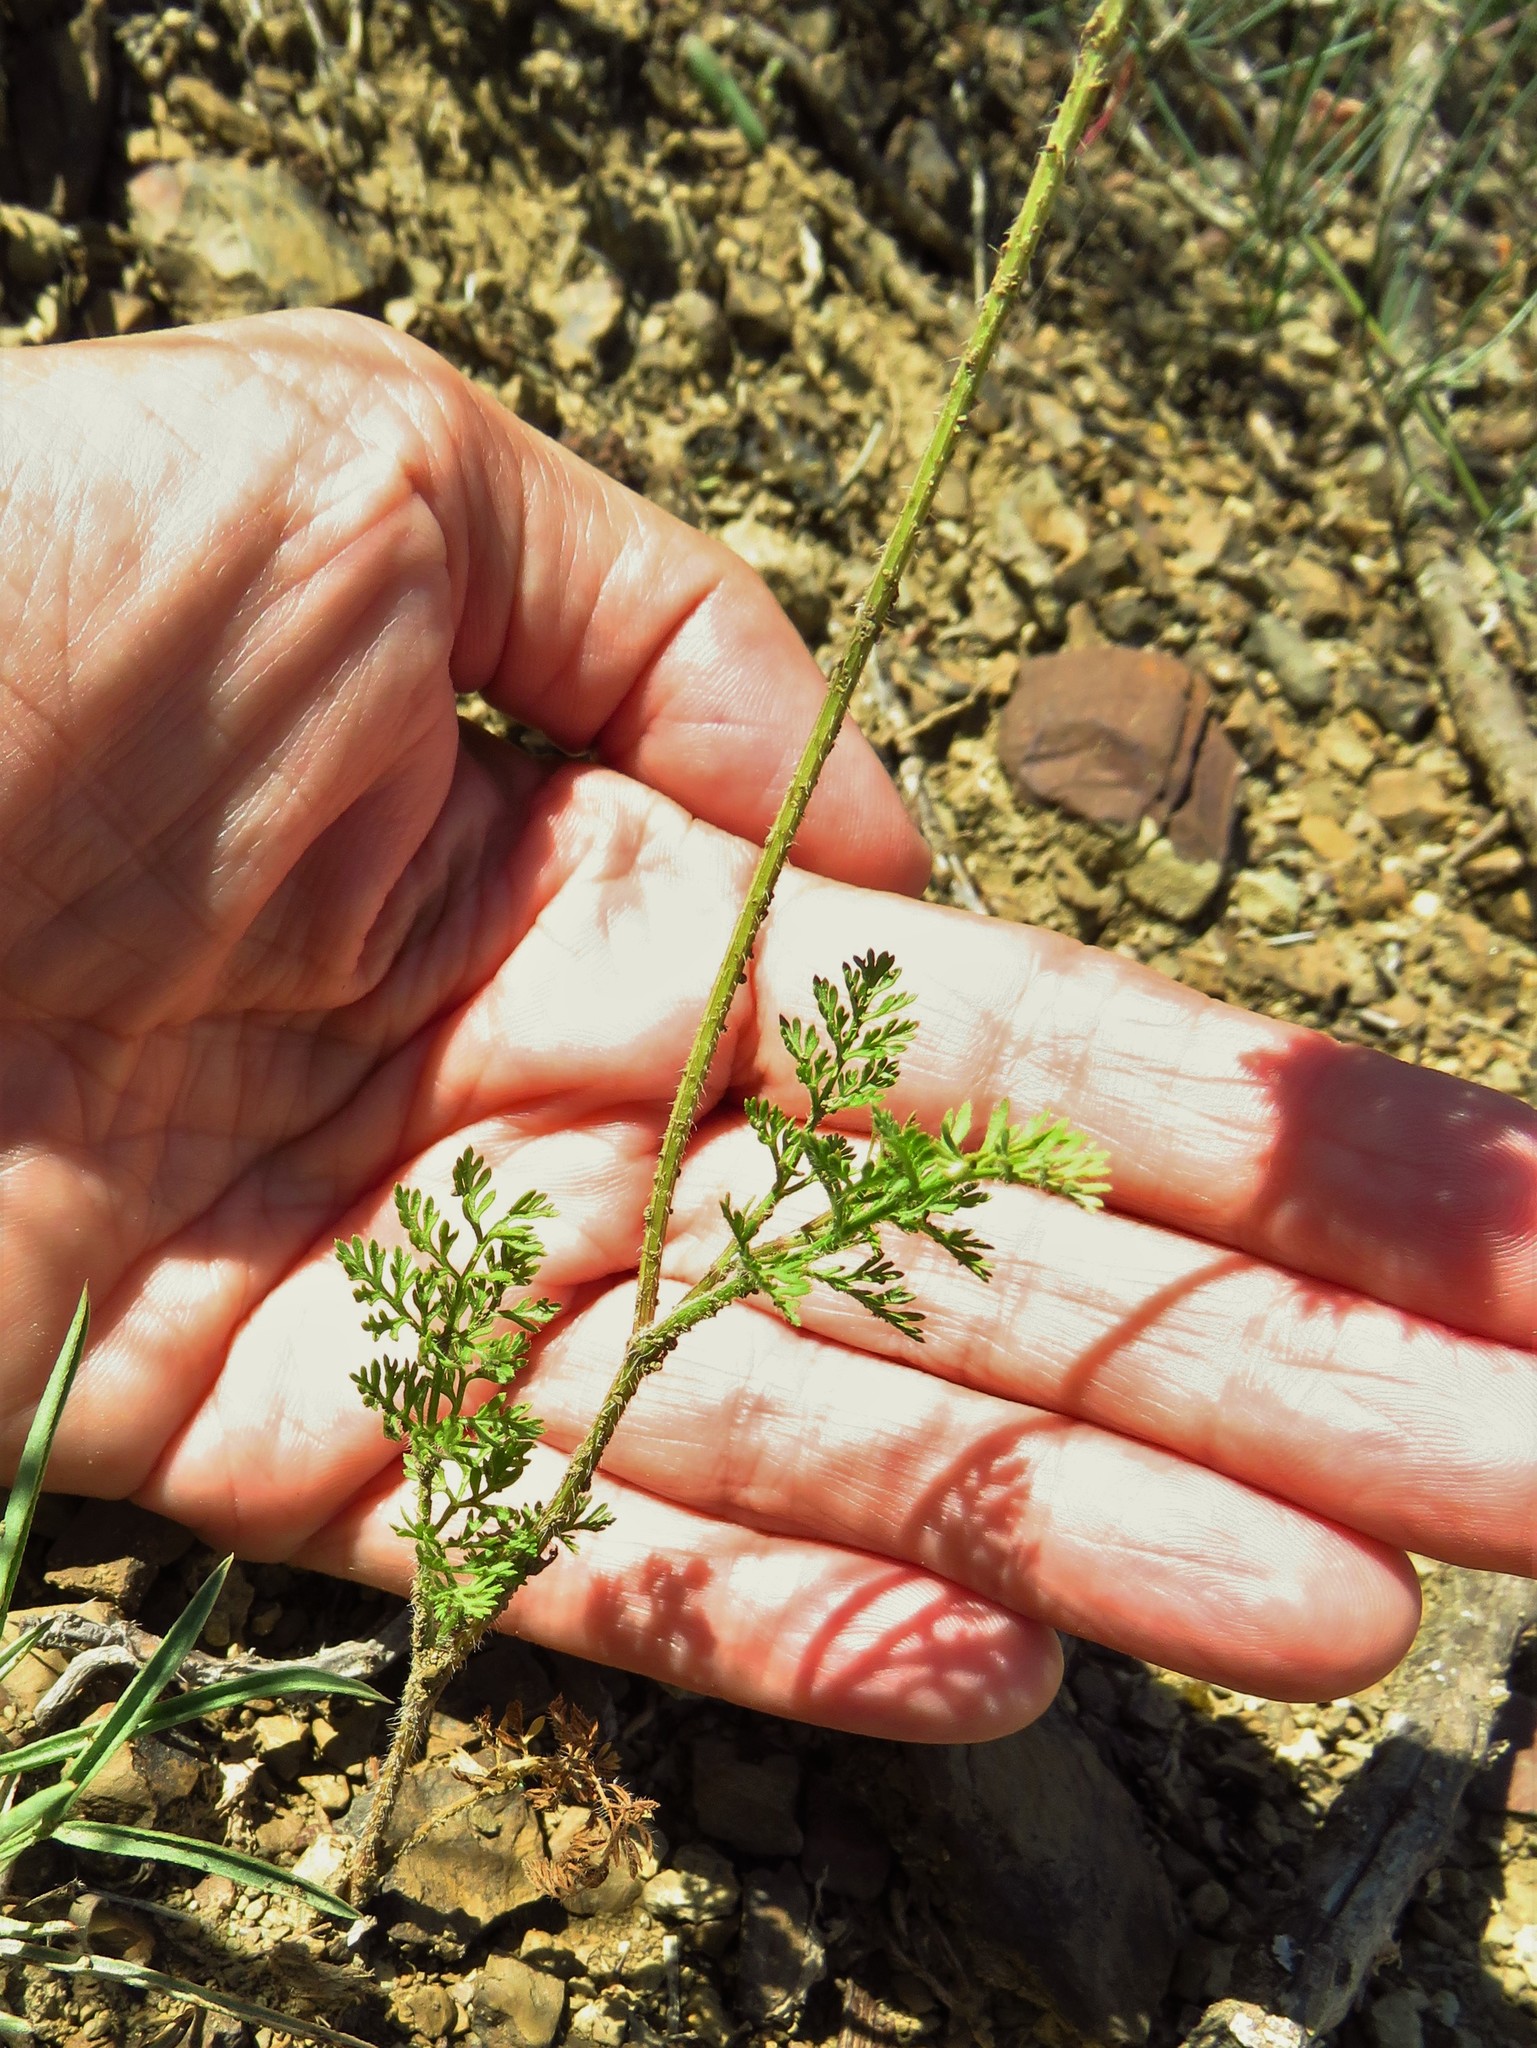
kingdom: Plantae
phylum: Tracheophyta
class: Magnoliopsida
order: Apiales
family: Apiaceae
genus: Daucus
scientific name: Daucus pusillus
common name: Southwest wild carrot
